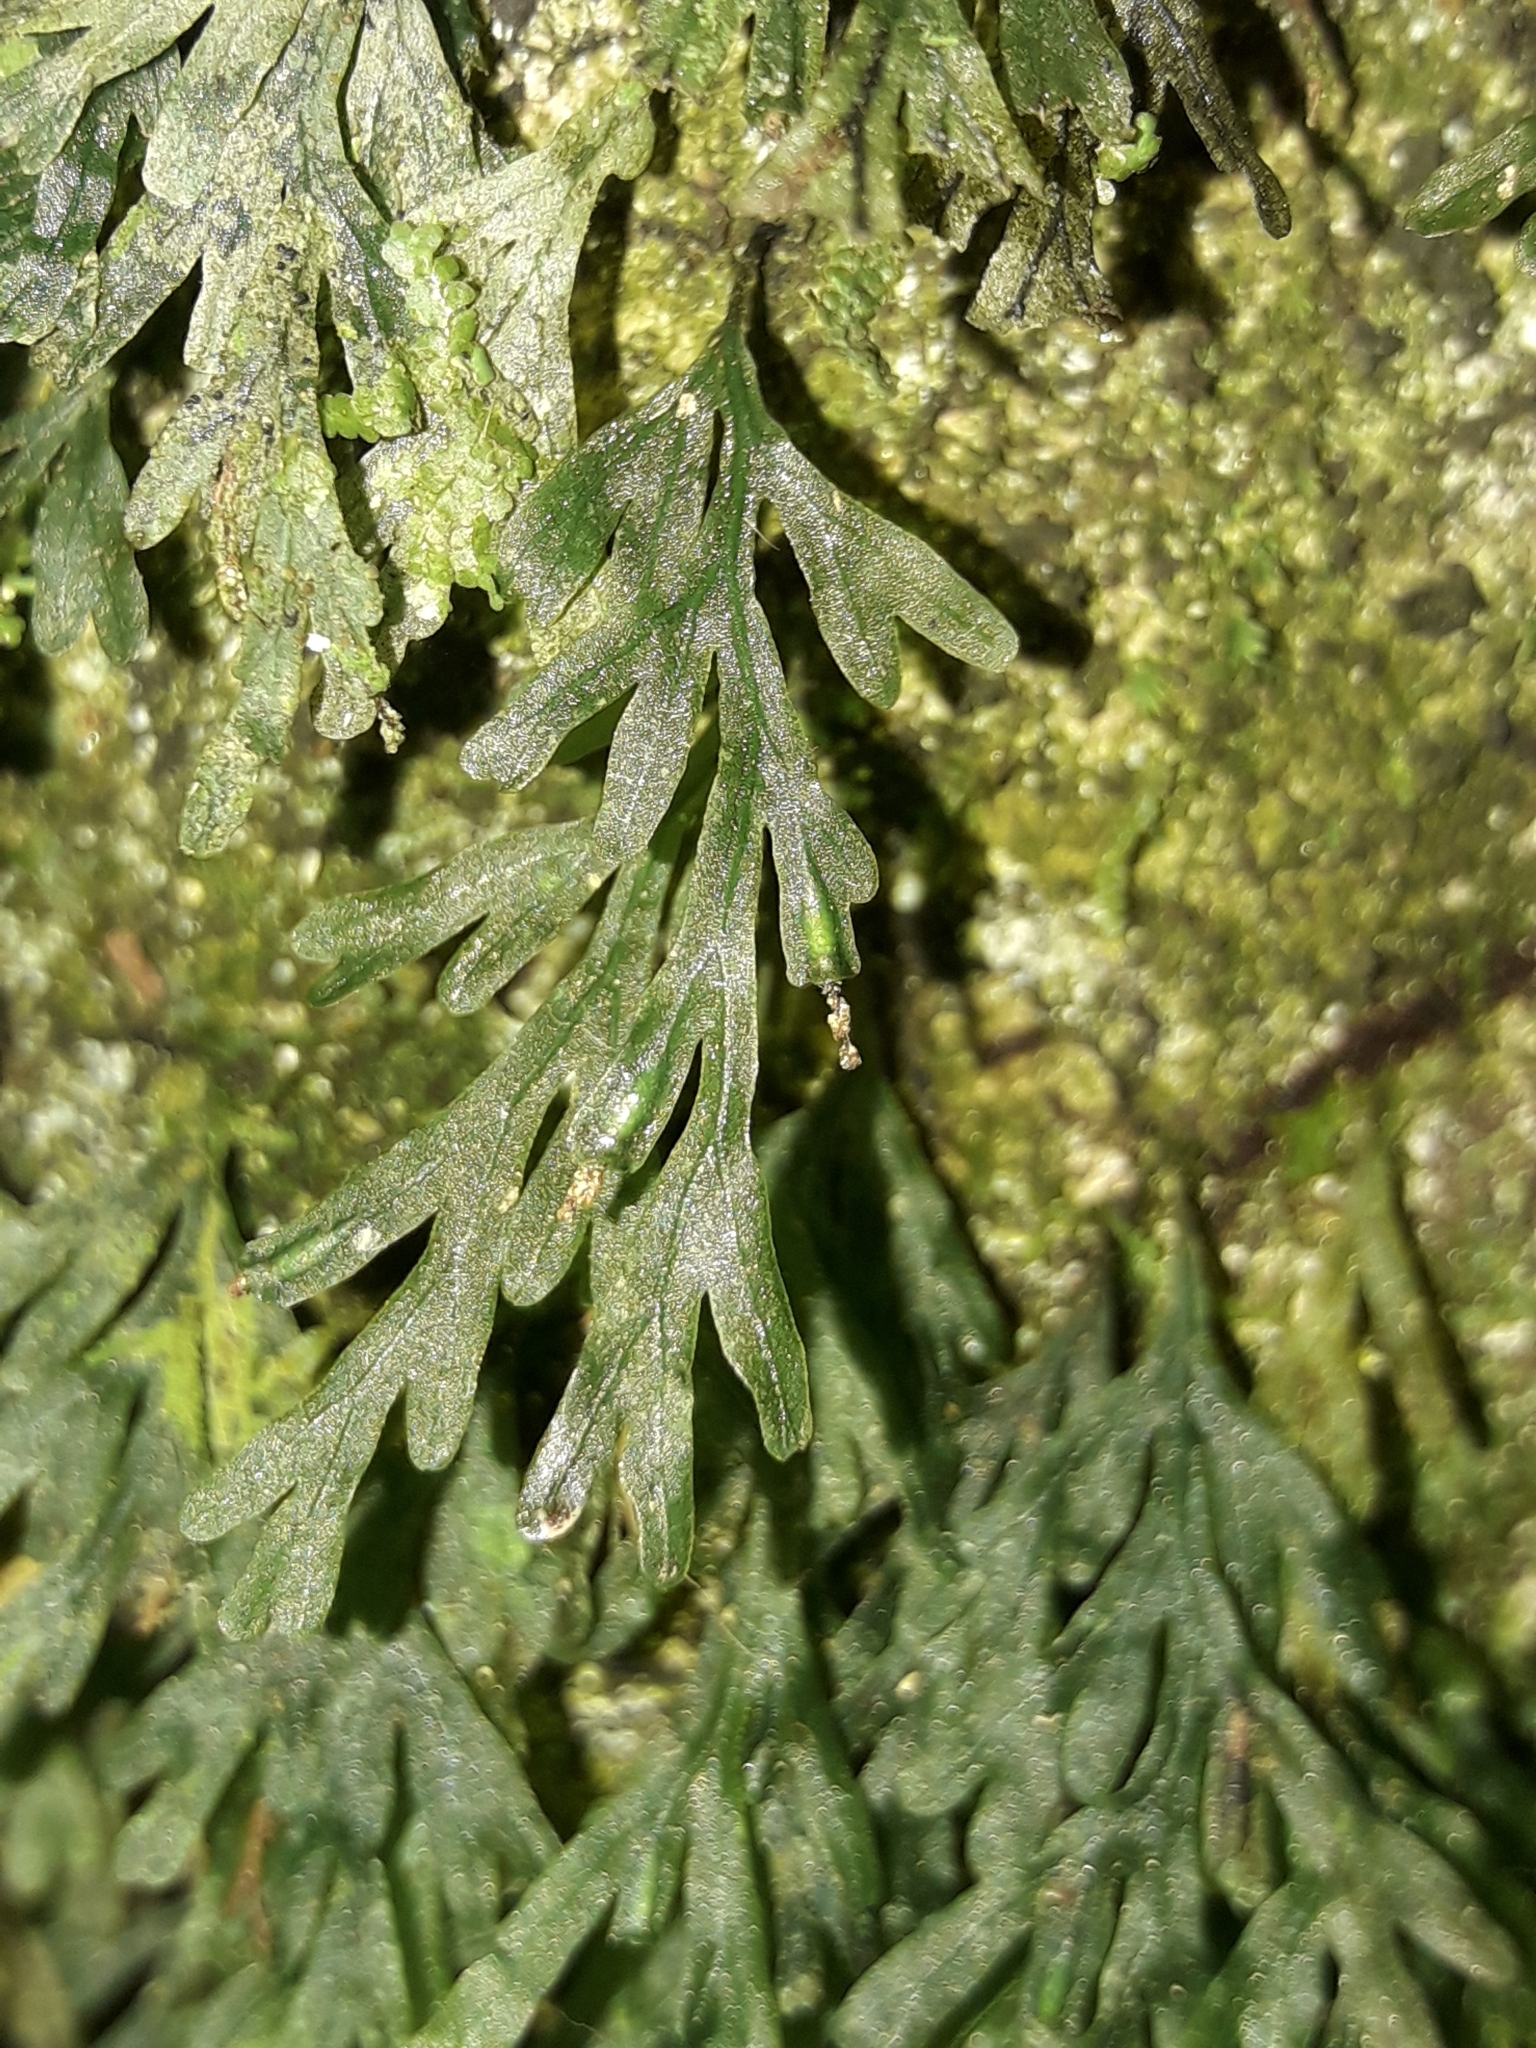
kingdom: Plantae
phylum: Tracheophyta
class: Polypodiopsida
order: Hymenophyllales
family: Hymenophyllaceae
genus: Polyphlebium
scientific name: Polyphlebium endlicherianum
